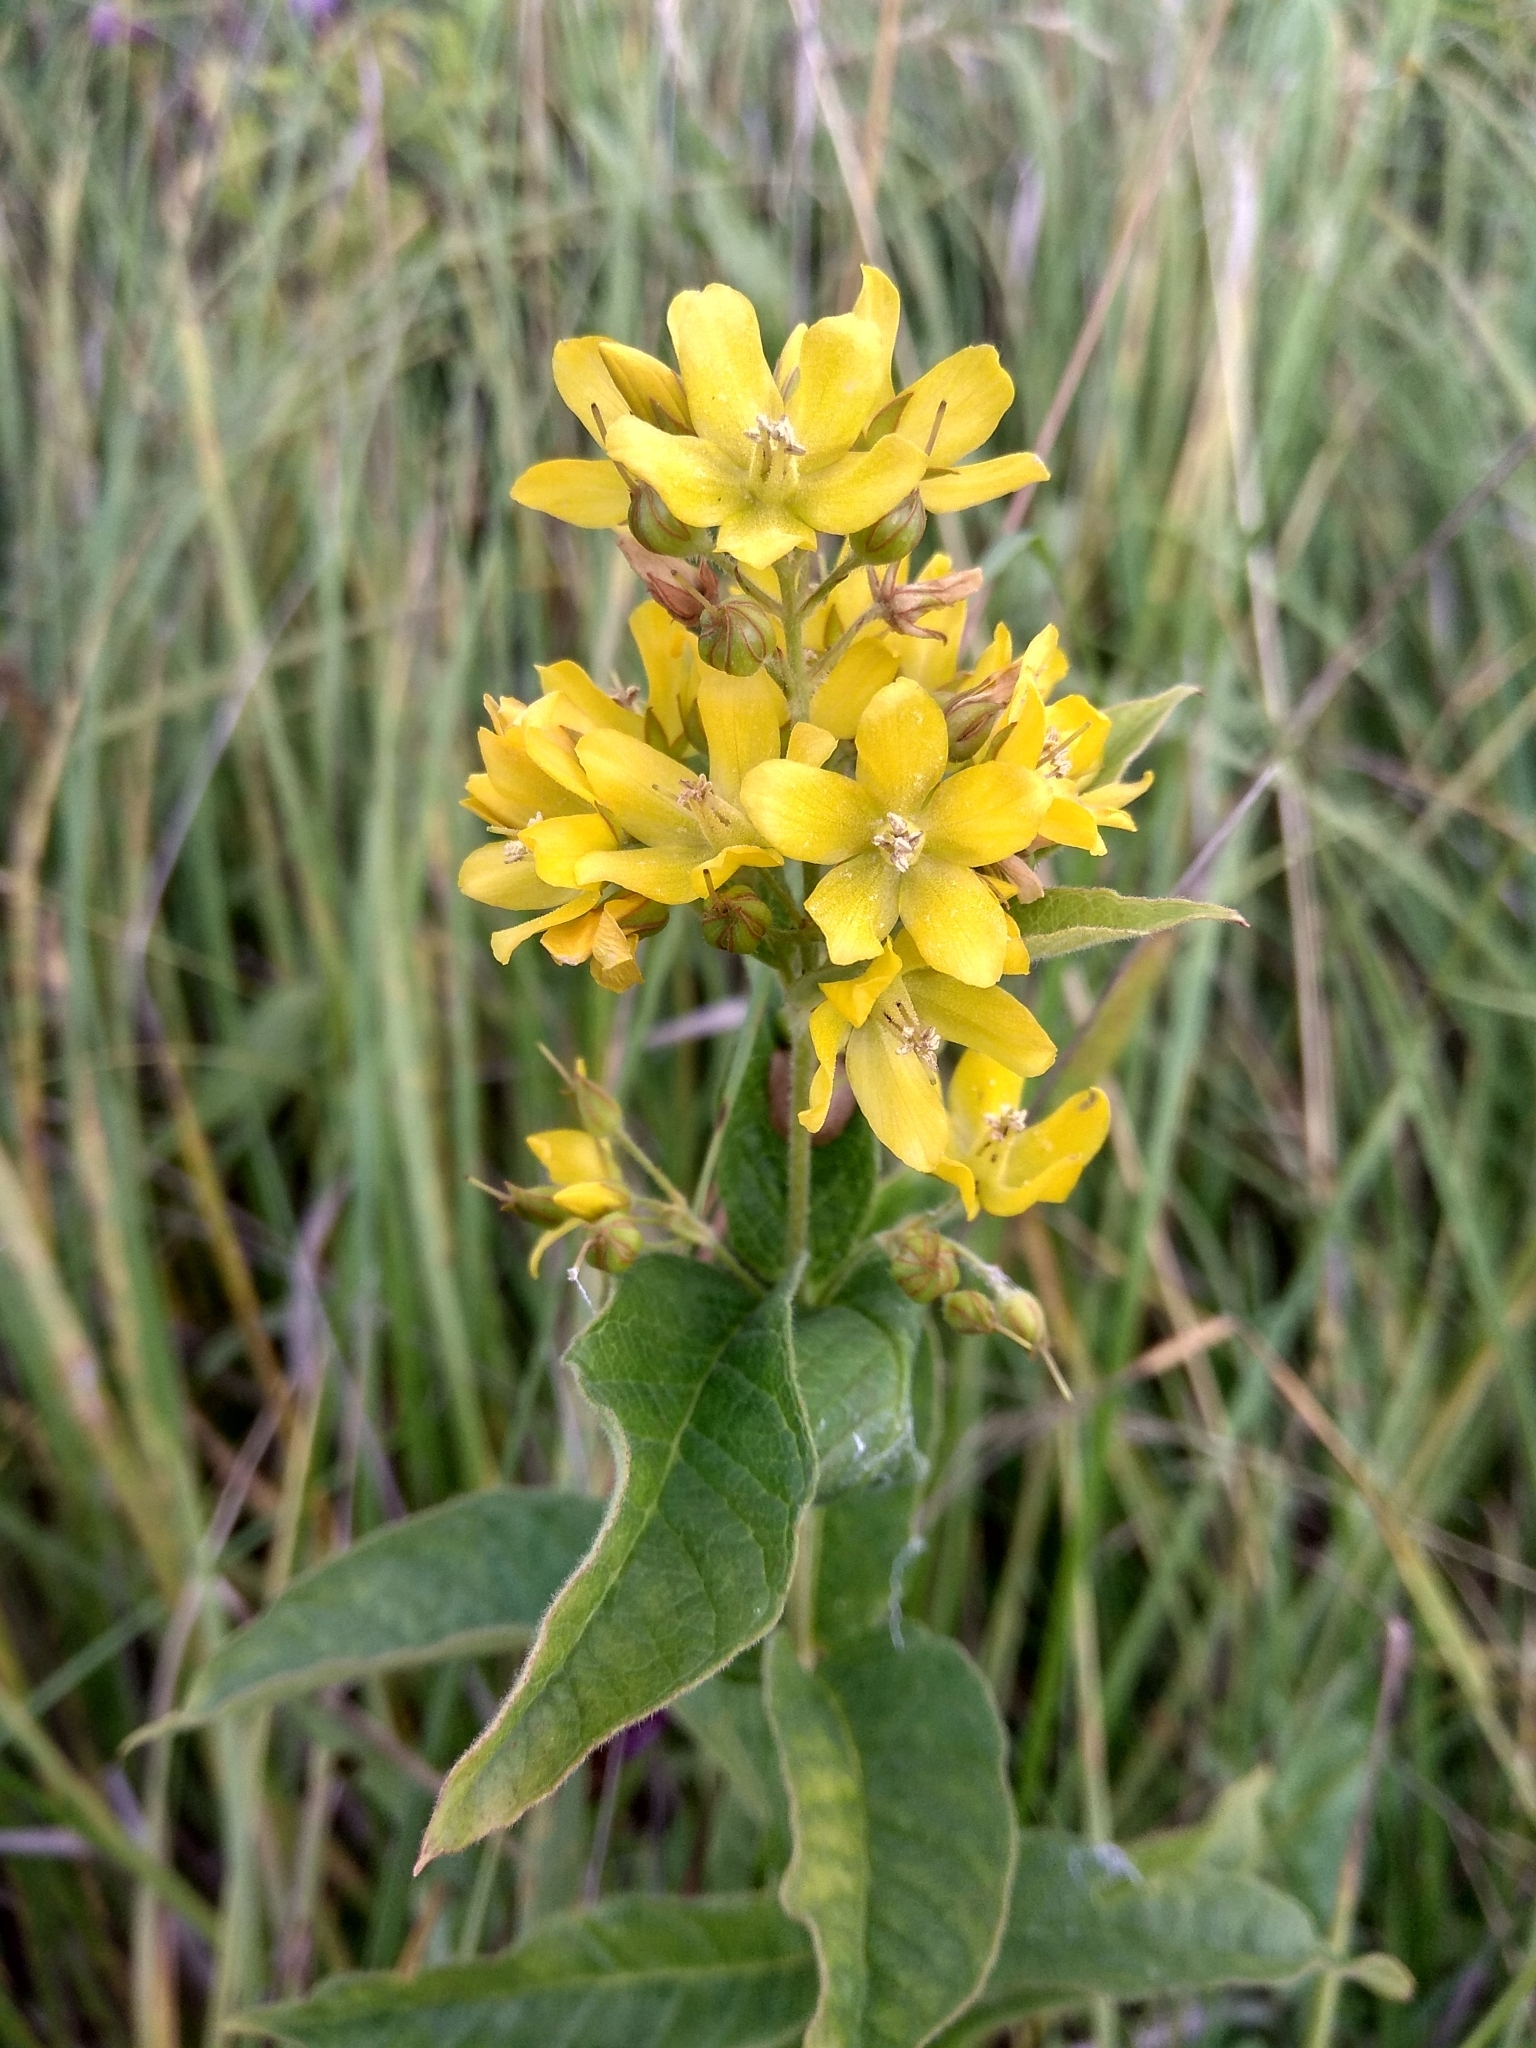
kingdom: Plantae
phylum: Tracheophyta
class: Magnoliopsida
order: Ericales
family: Primulaceae
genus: Lysimachia
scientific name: Lysimachia vulgaris
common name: Yellow loosestrife
